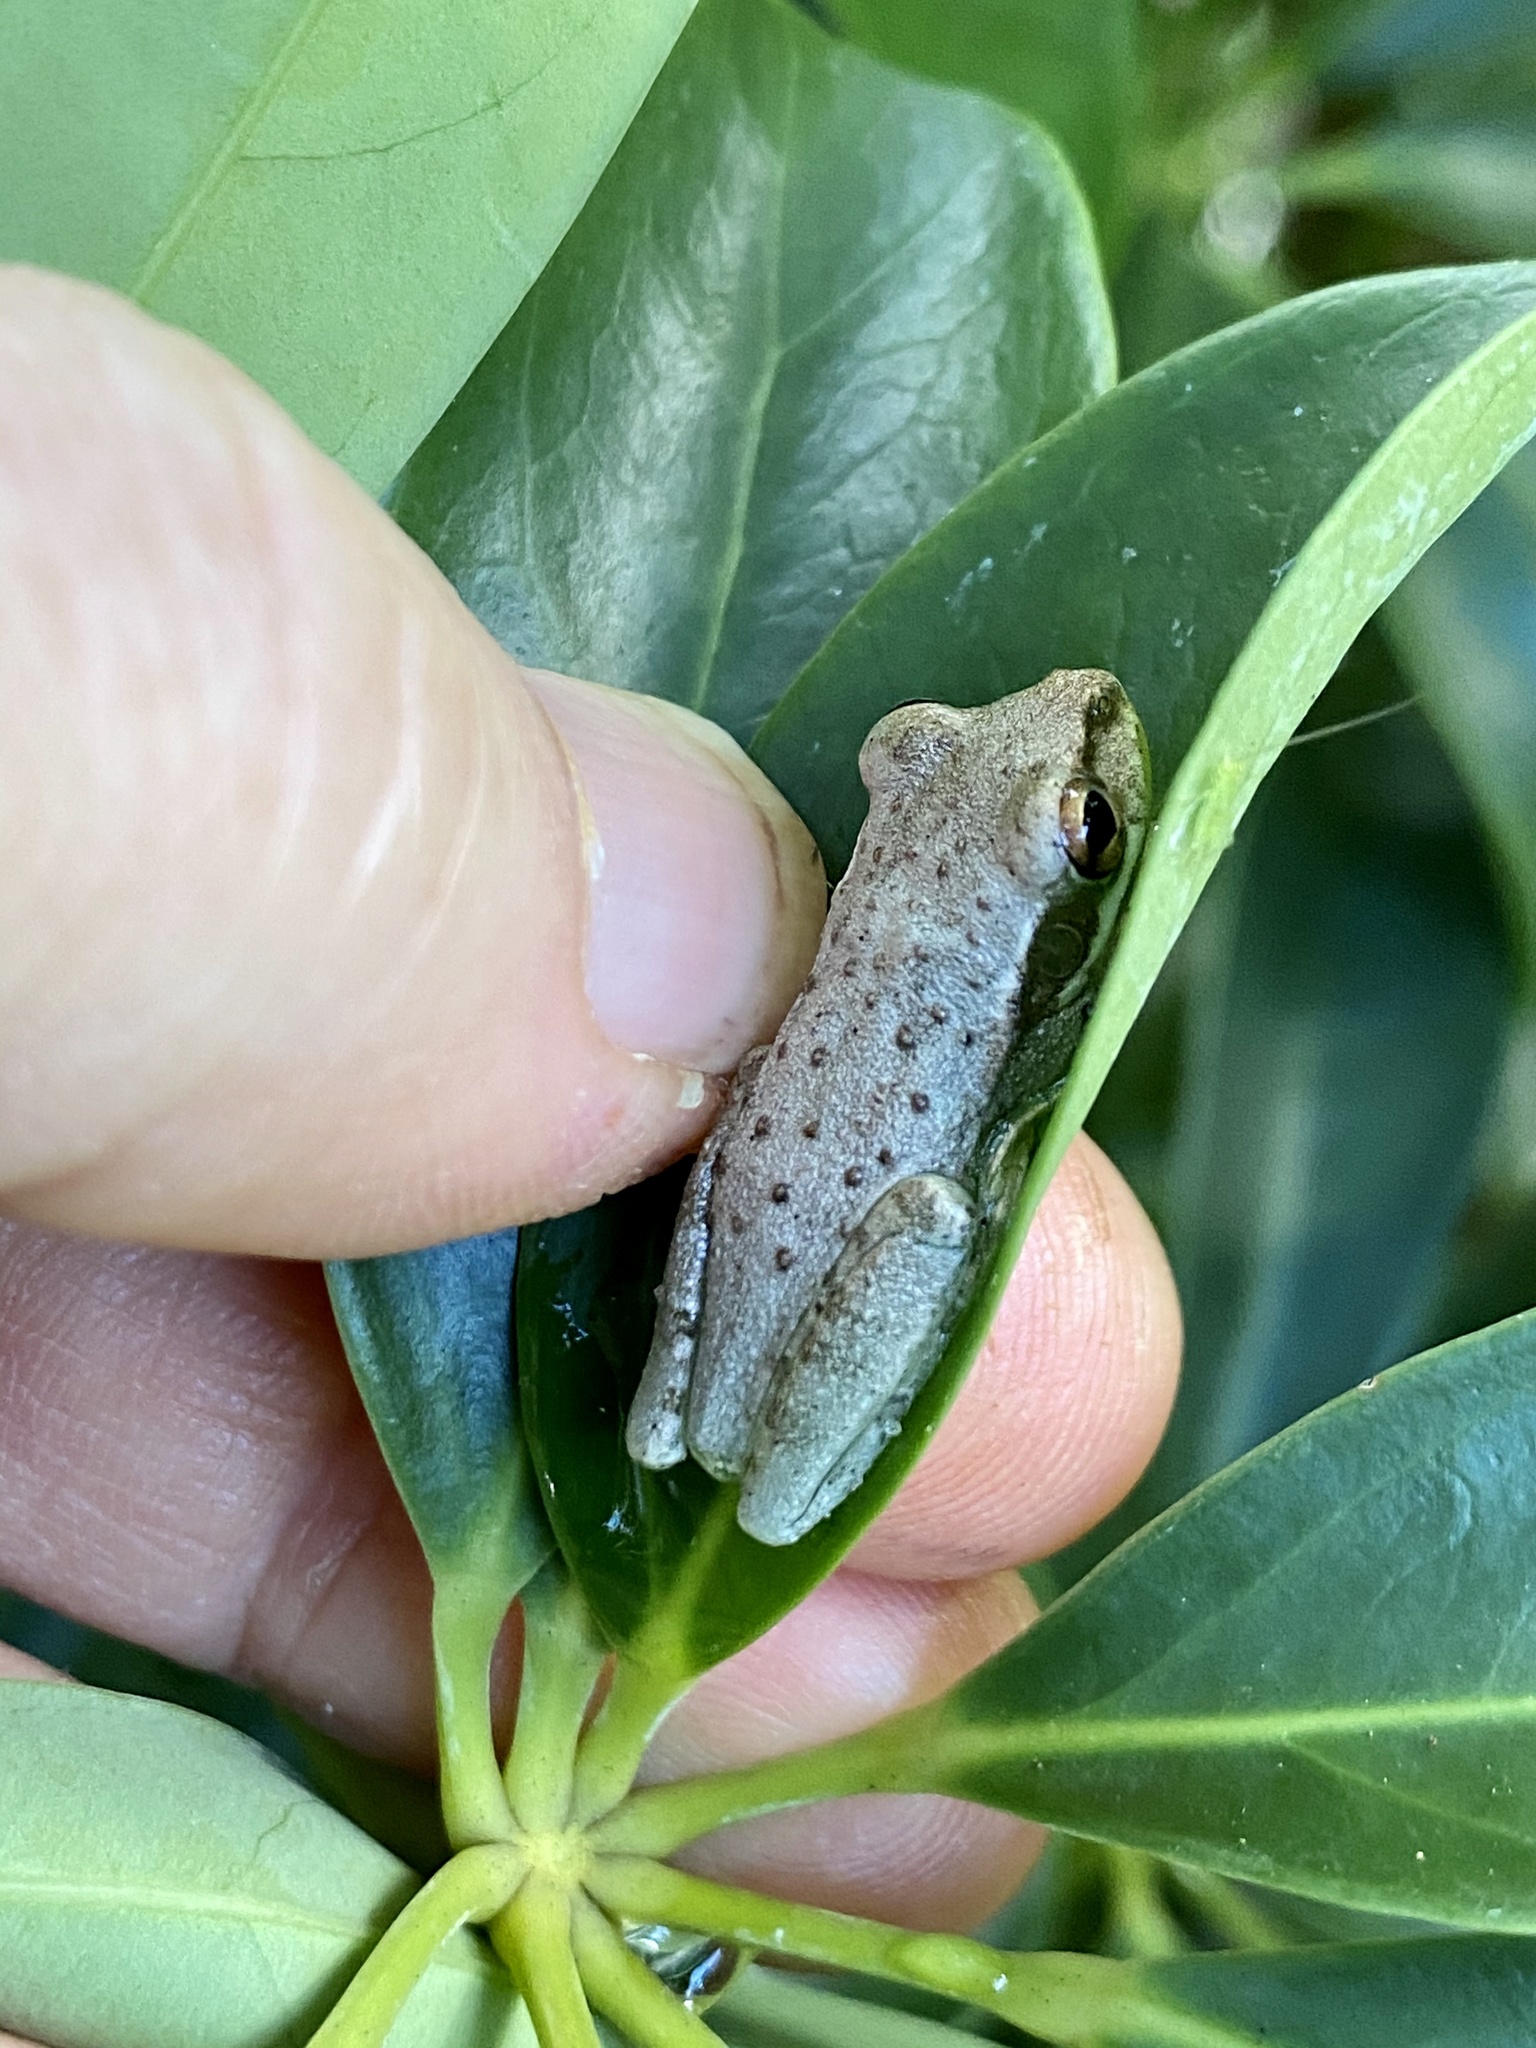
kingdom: Animalia
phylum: Chordata
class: Amphibia
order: Anura
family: Hylidae
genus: Osteopilus
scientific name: Osteopilus septentrionalis
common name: Cuban treefrog
